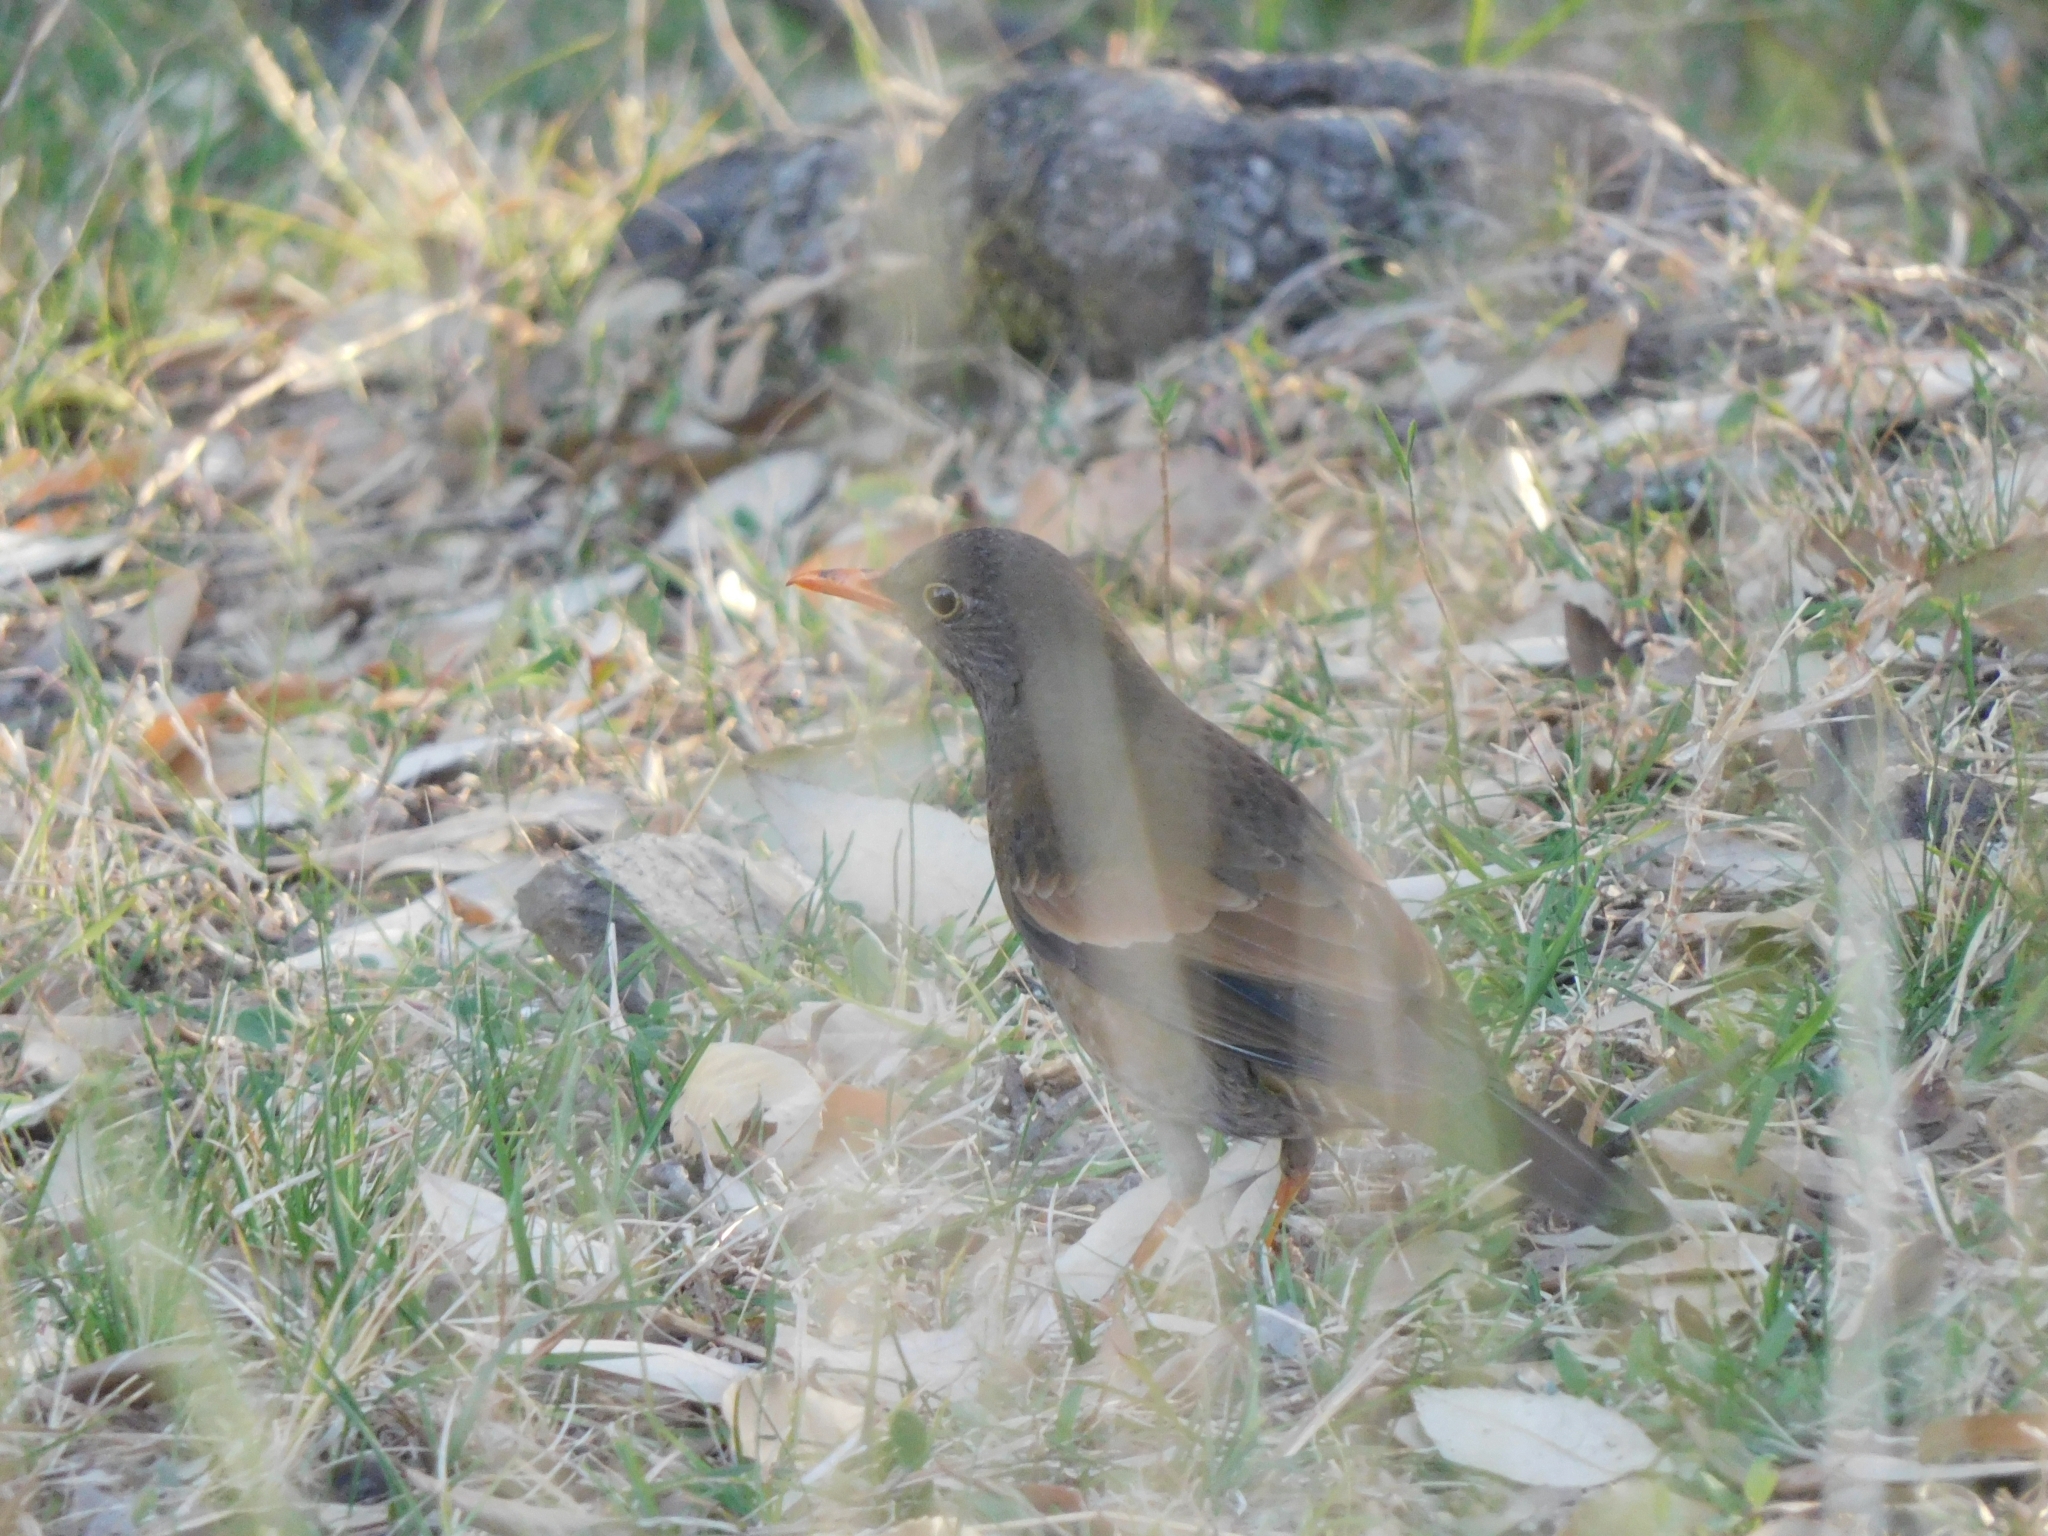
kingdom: Animalia
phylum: Chordata
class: Aves
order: Passeriformes
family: Turdidae
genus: Turdus
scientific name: Turdus boulboul
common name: Grey-winged blackbird
